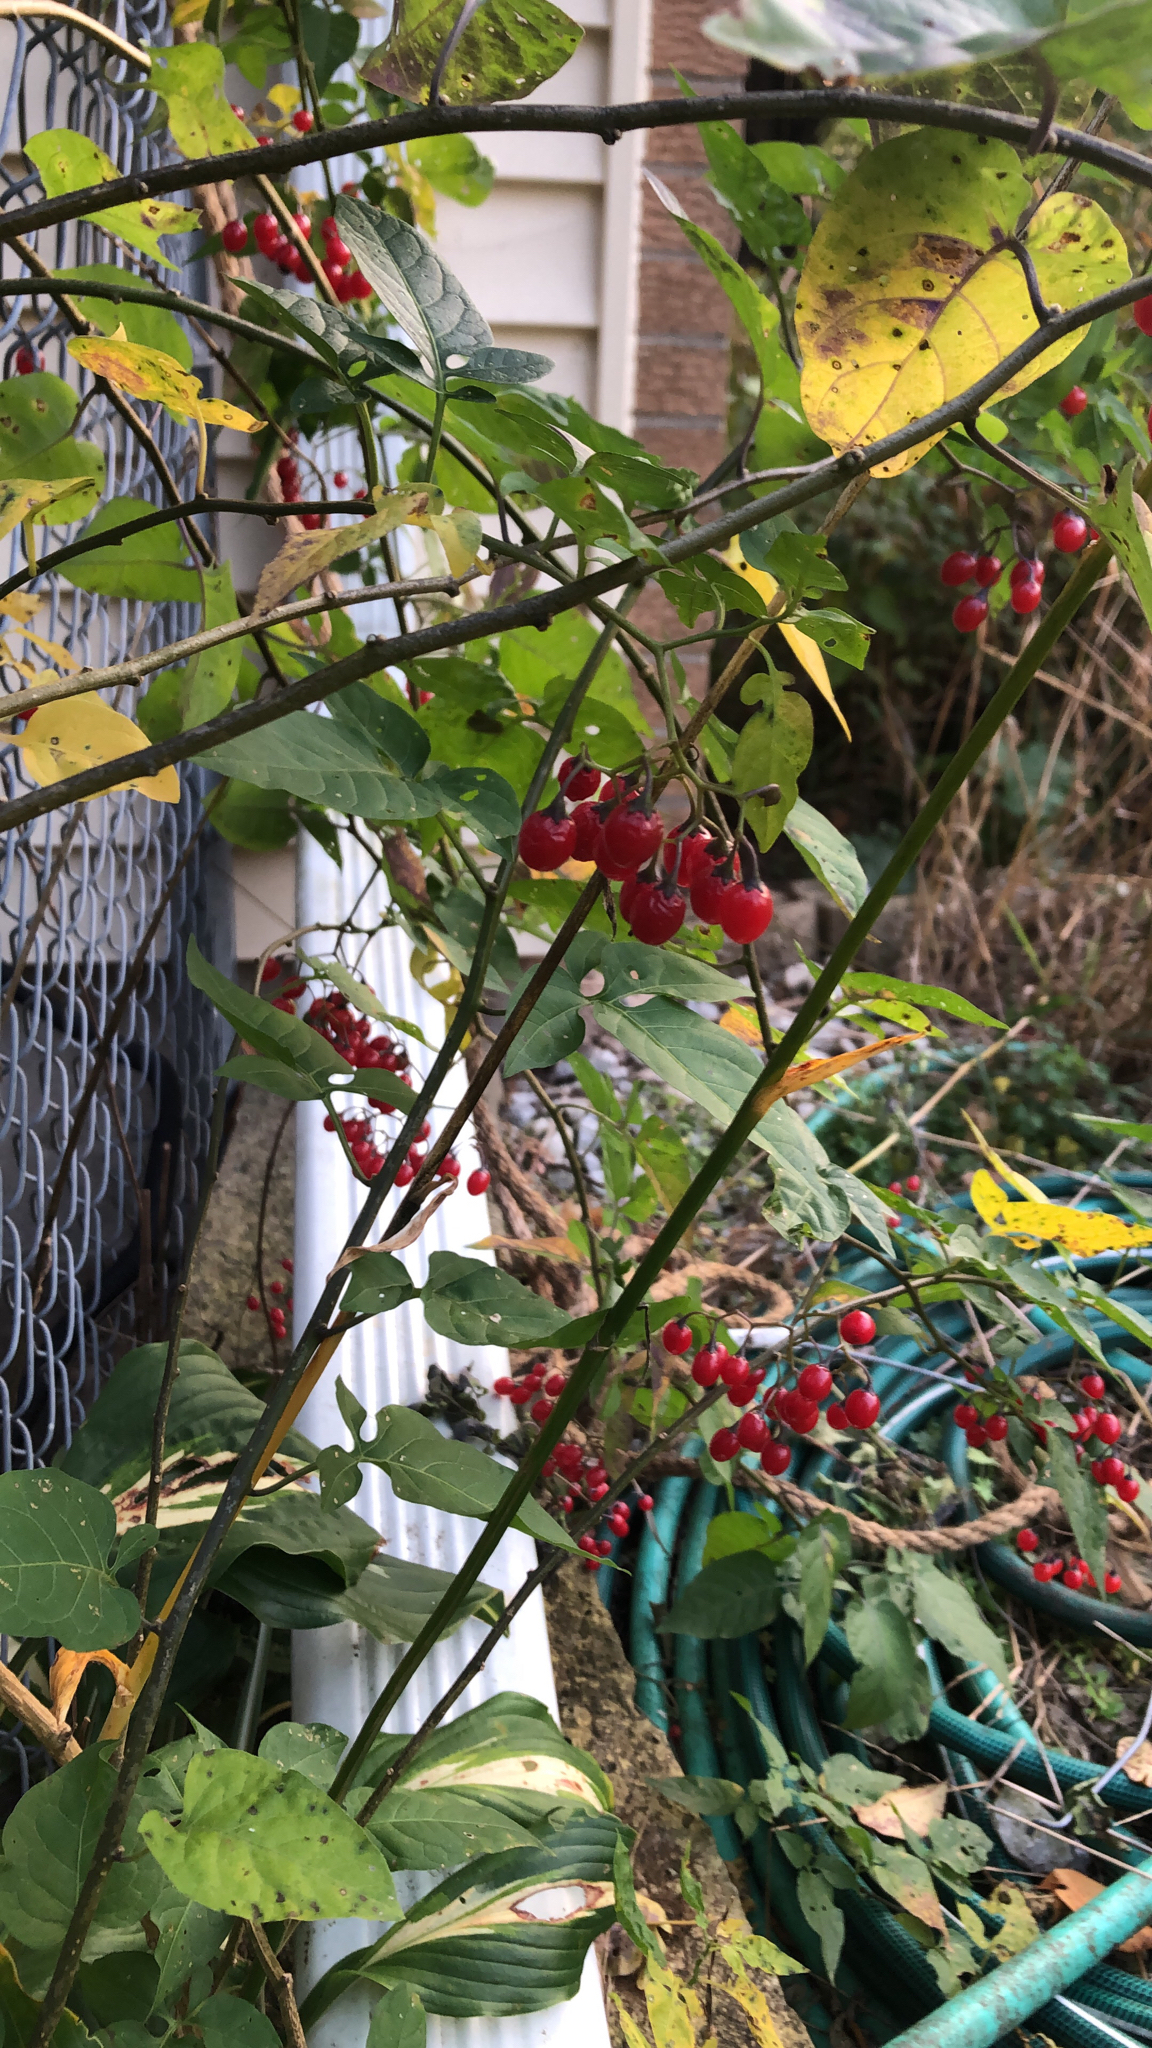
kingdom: Plantae
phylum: Tracheophyta
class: Magnoliopsida
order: Solanales
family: Solanaceae
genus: Solanum
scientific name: Solanum dulcamara
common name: Climbing nightshade
